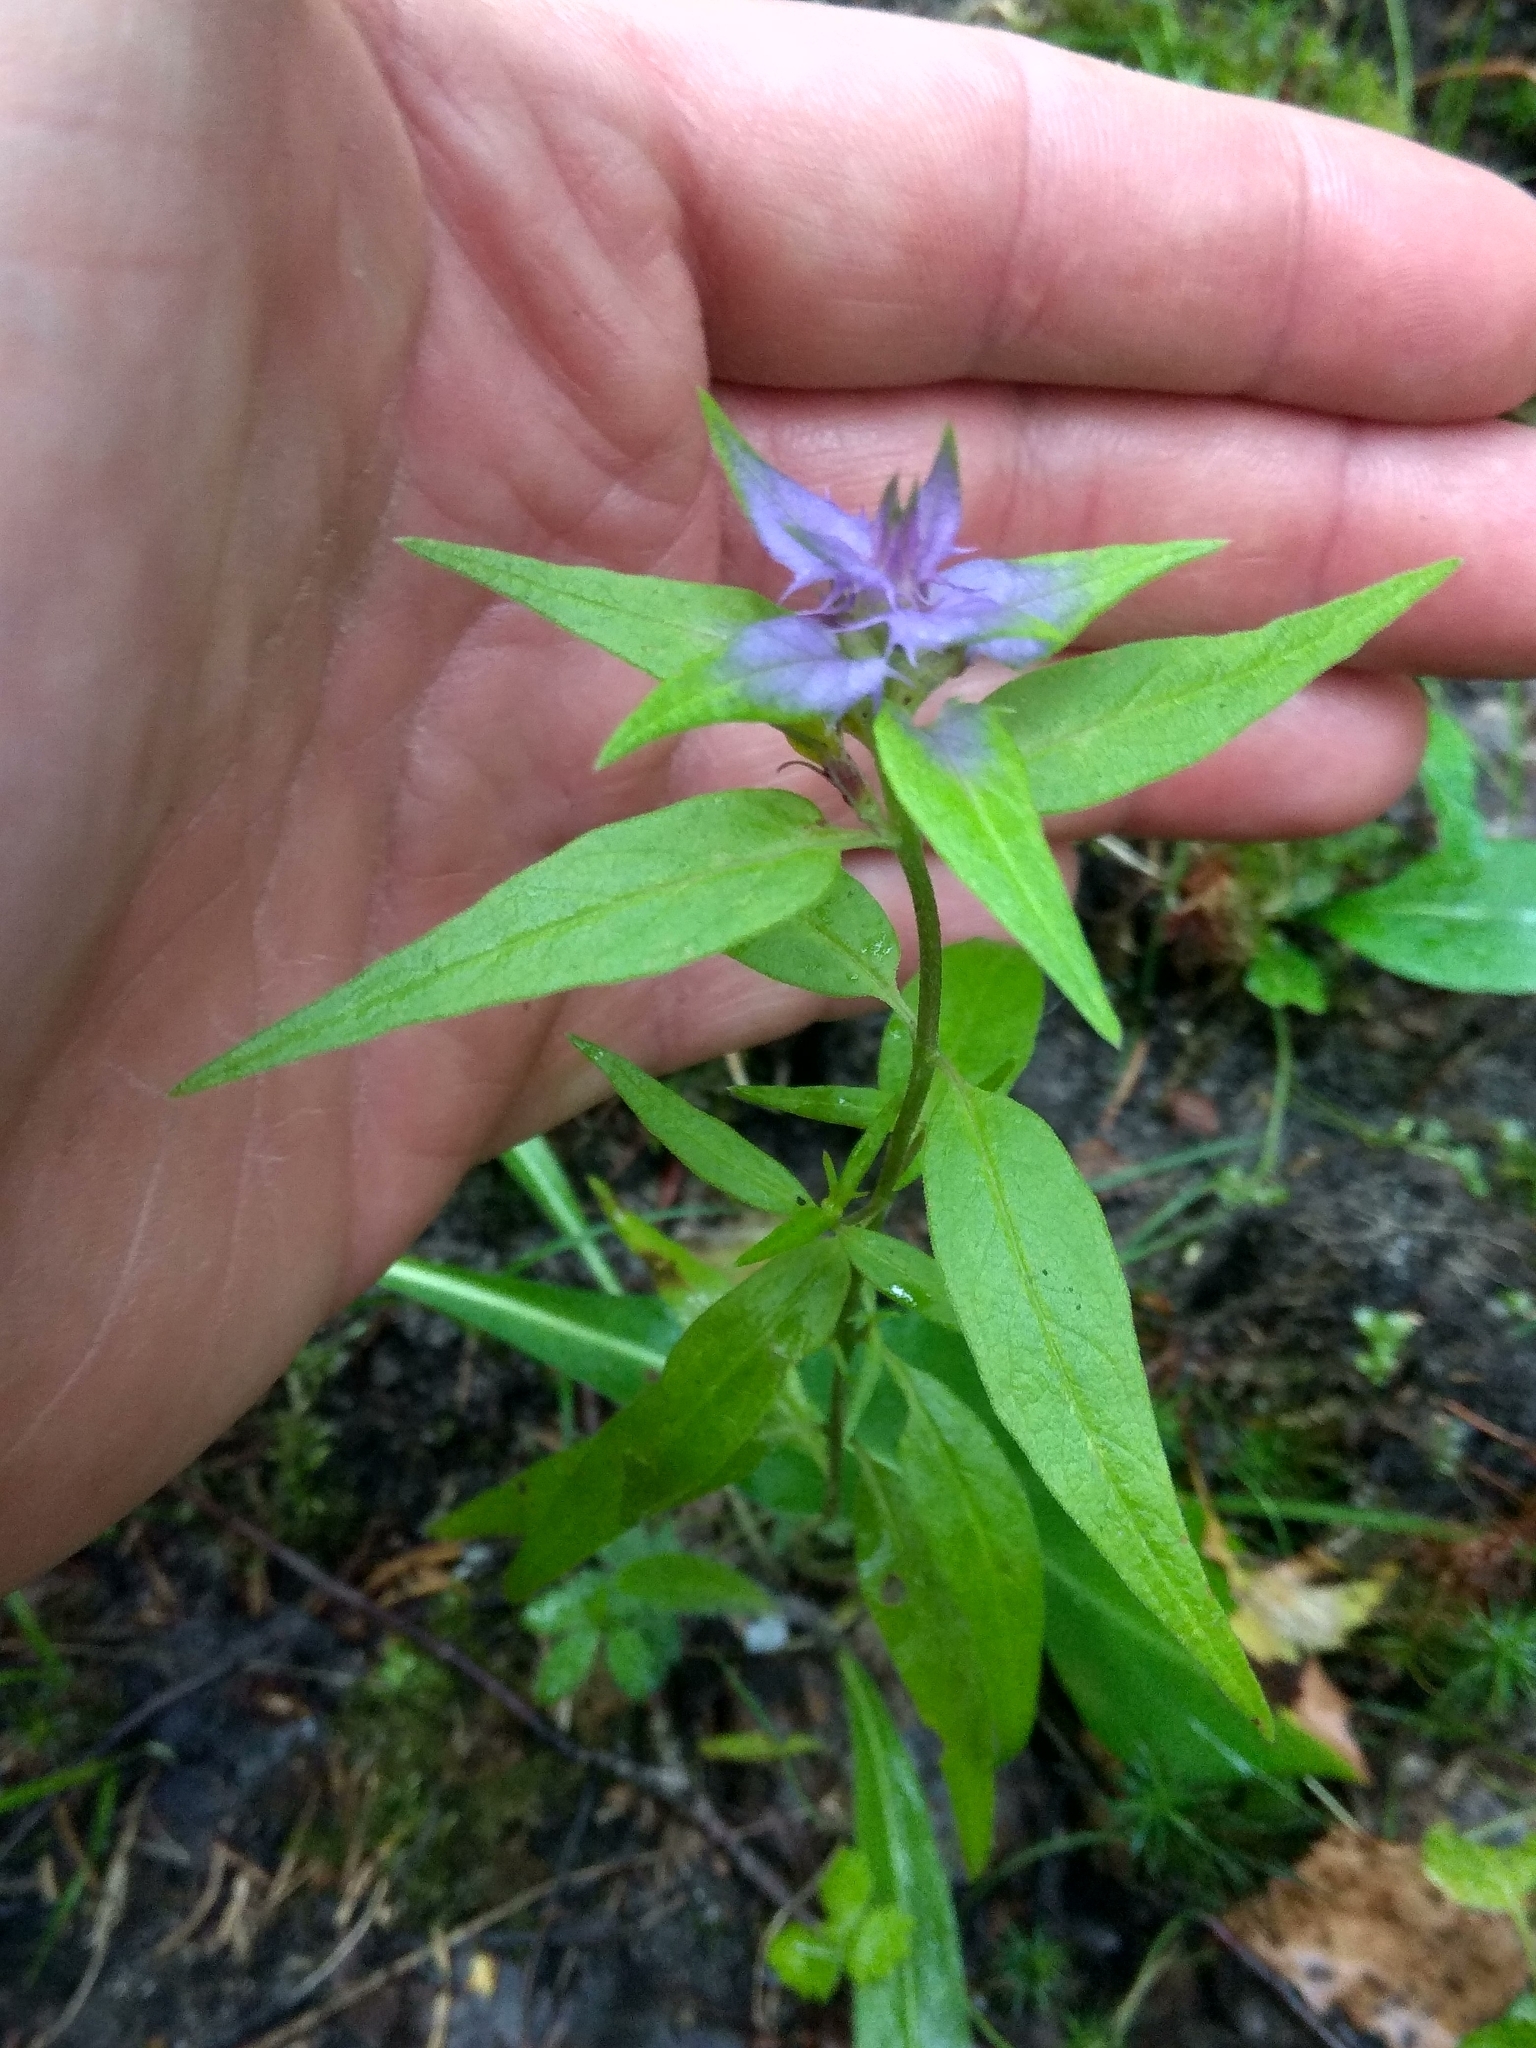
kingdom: Plantae
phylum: Tracheophyta
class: Magnoliopsida
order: Lamiales
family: Orobanchaceae
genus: Melampyrum
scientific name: Melampyrum nemorosum
